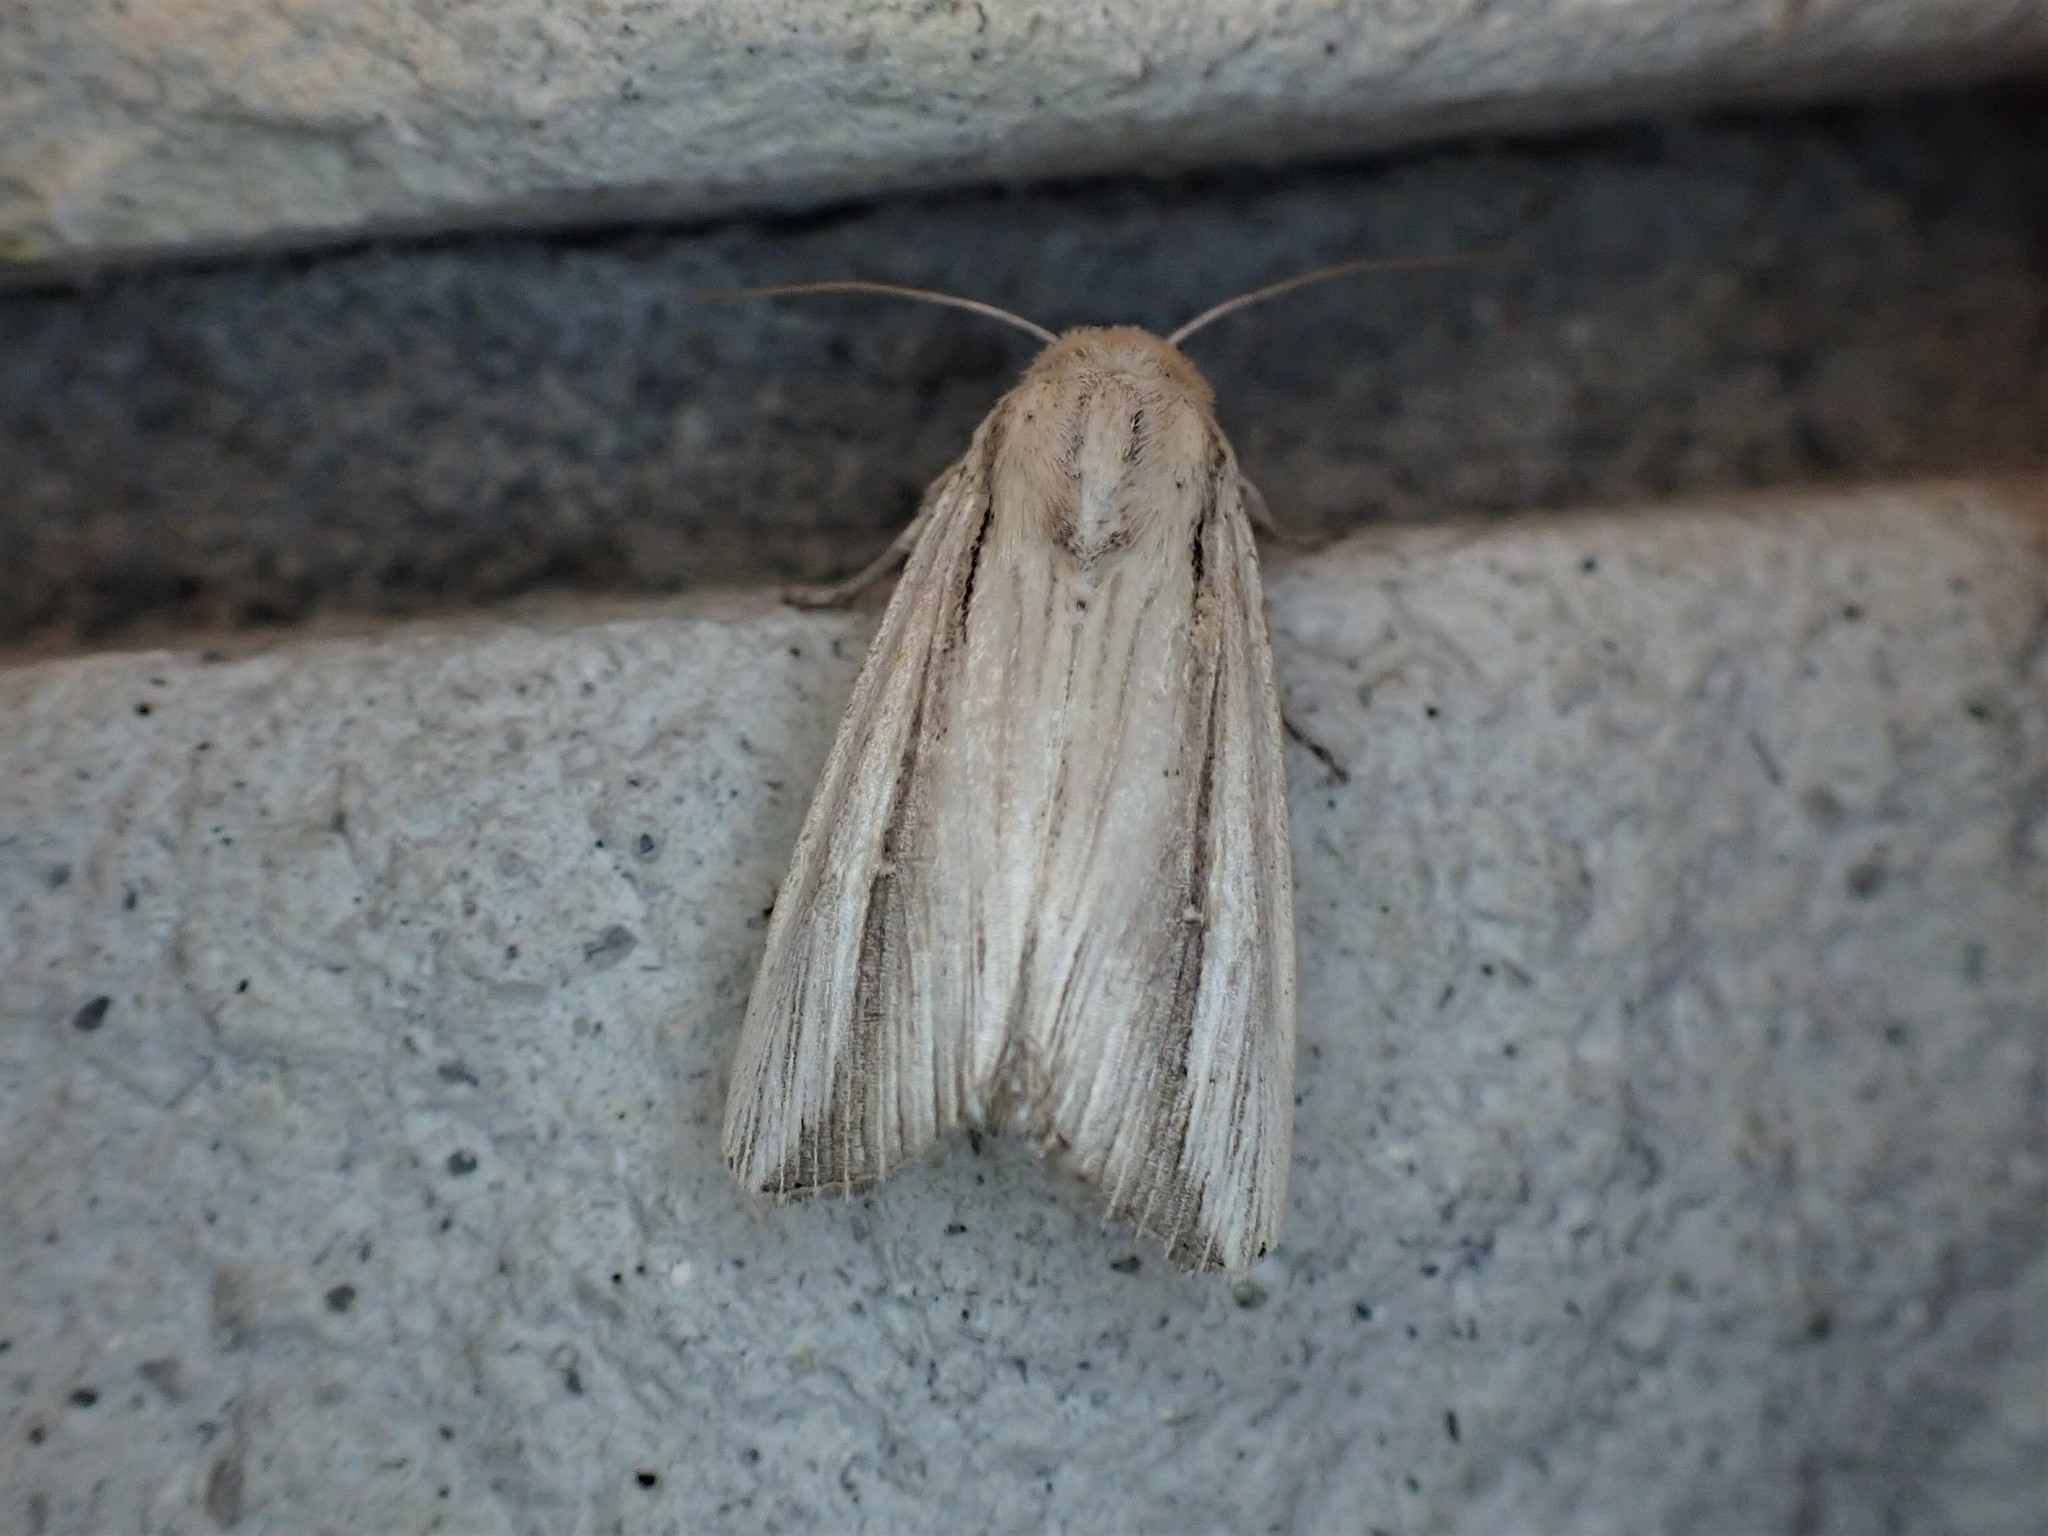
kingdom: Animalia
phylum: Arthropoda
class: Insecta
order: Lepidoptera
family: Noctuidae
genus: Leucania
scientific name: Leucania stenographa
